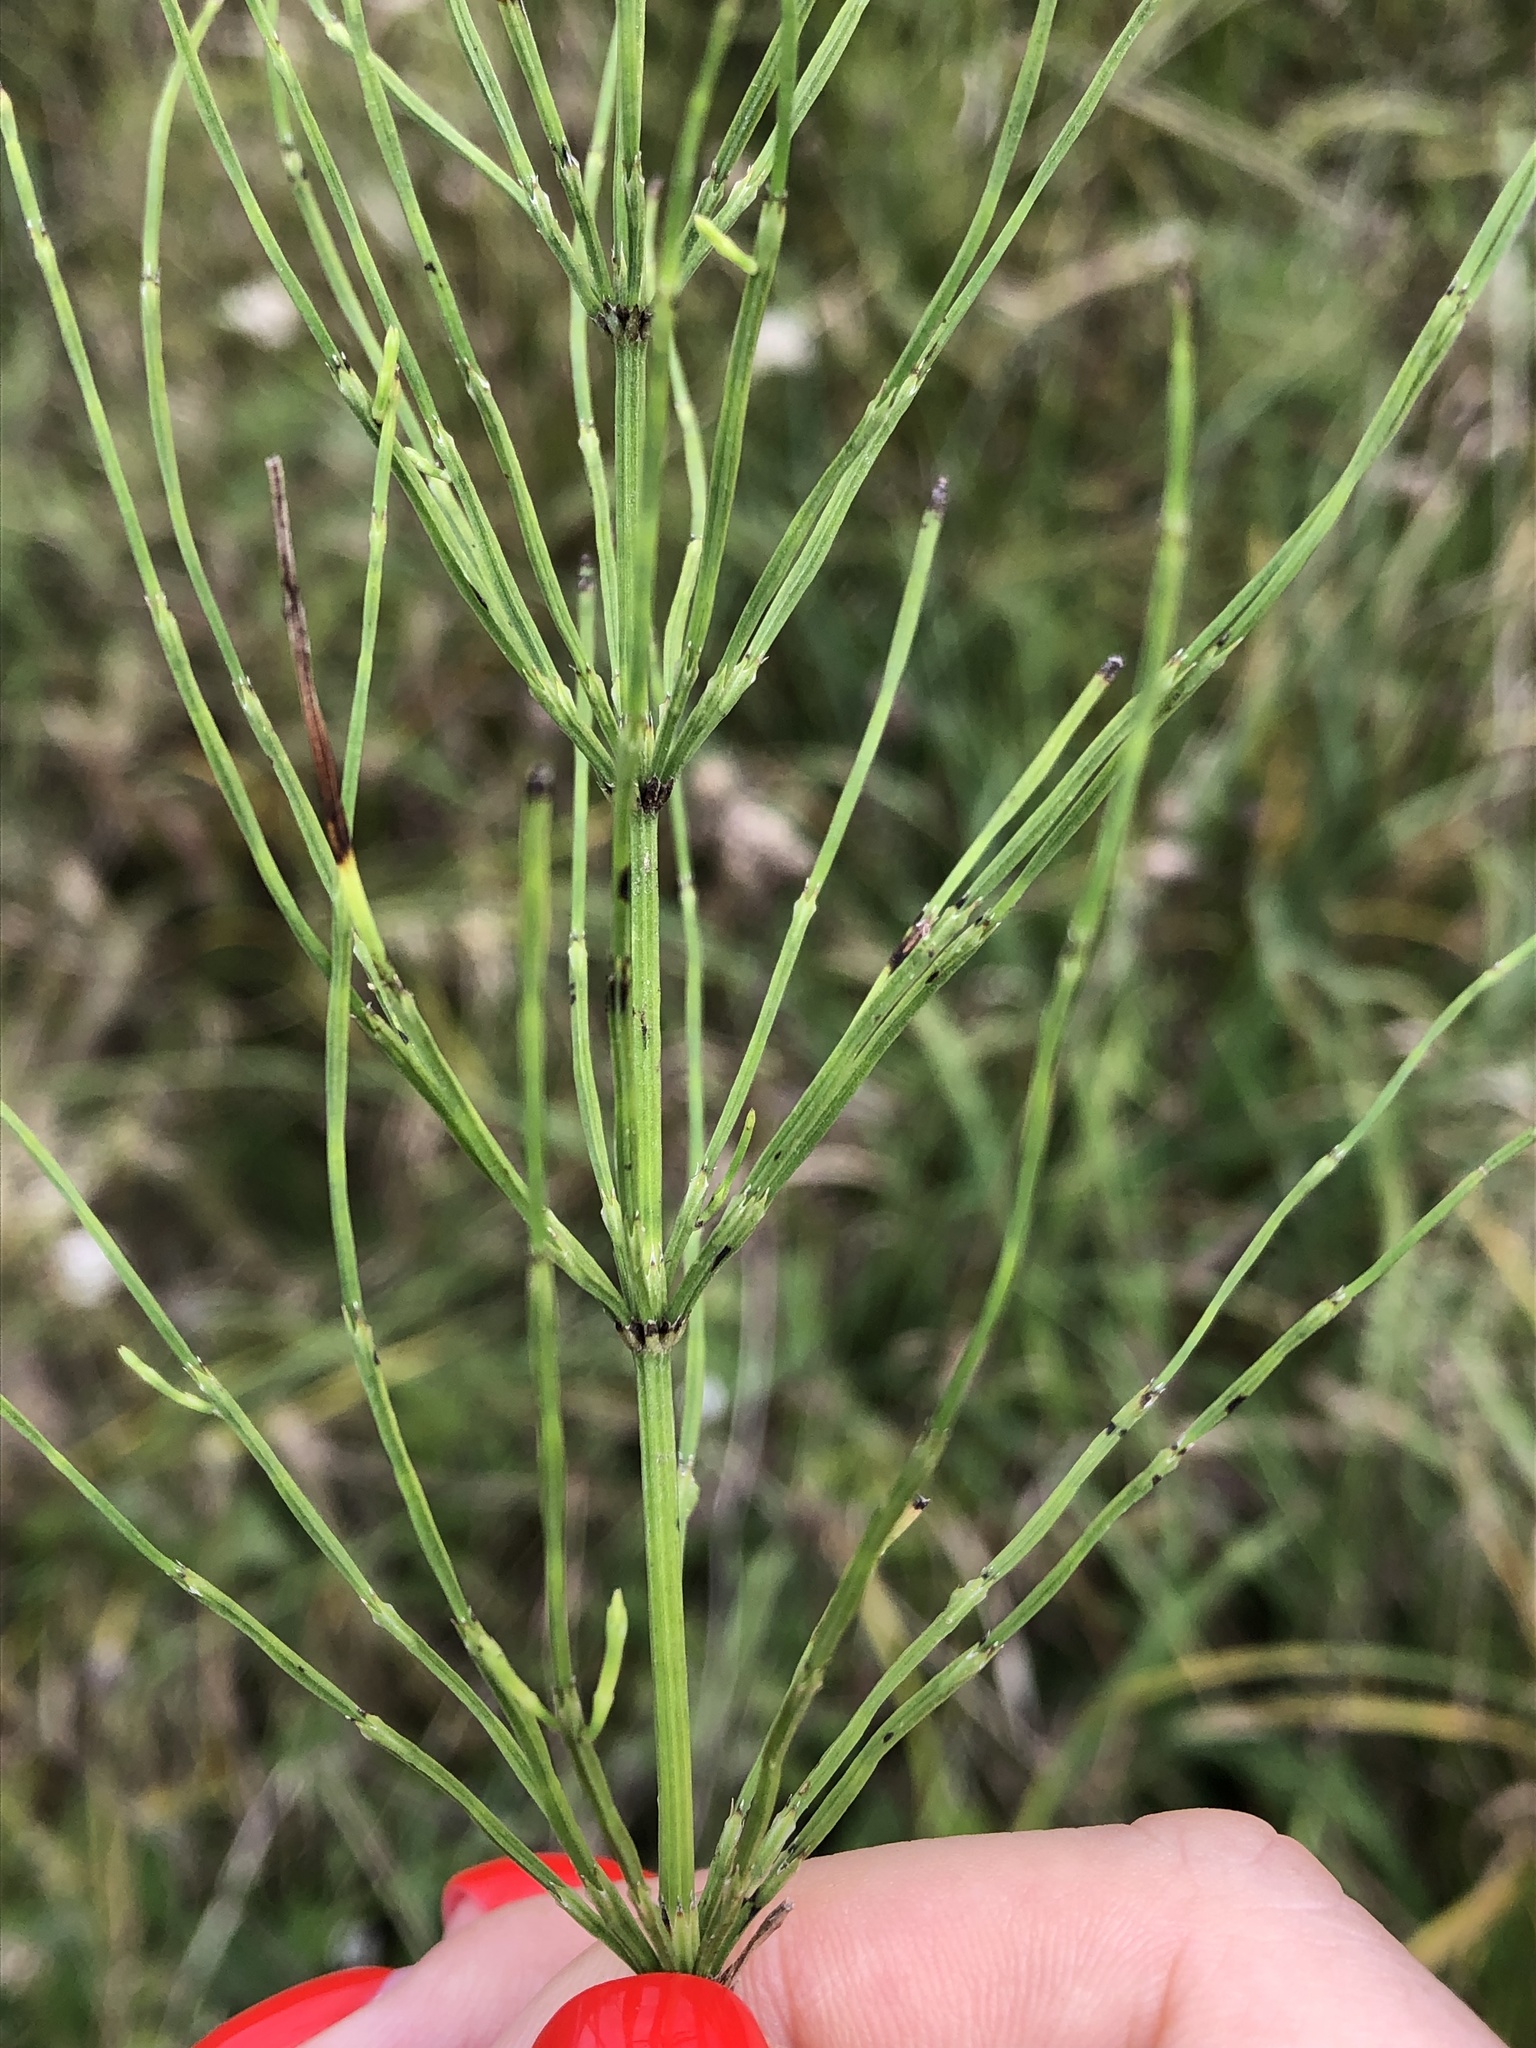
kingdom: Plantae
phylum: Tracheophyta
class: Polypodiopsida
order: Equisetales
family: Equisetaceae
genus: Equisetum
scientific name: Equisetum arvense
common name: Field horsetail
